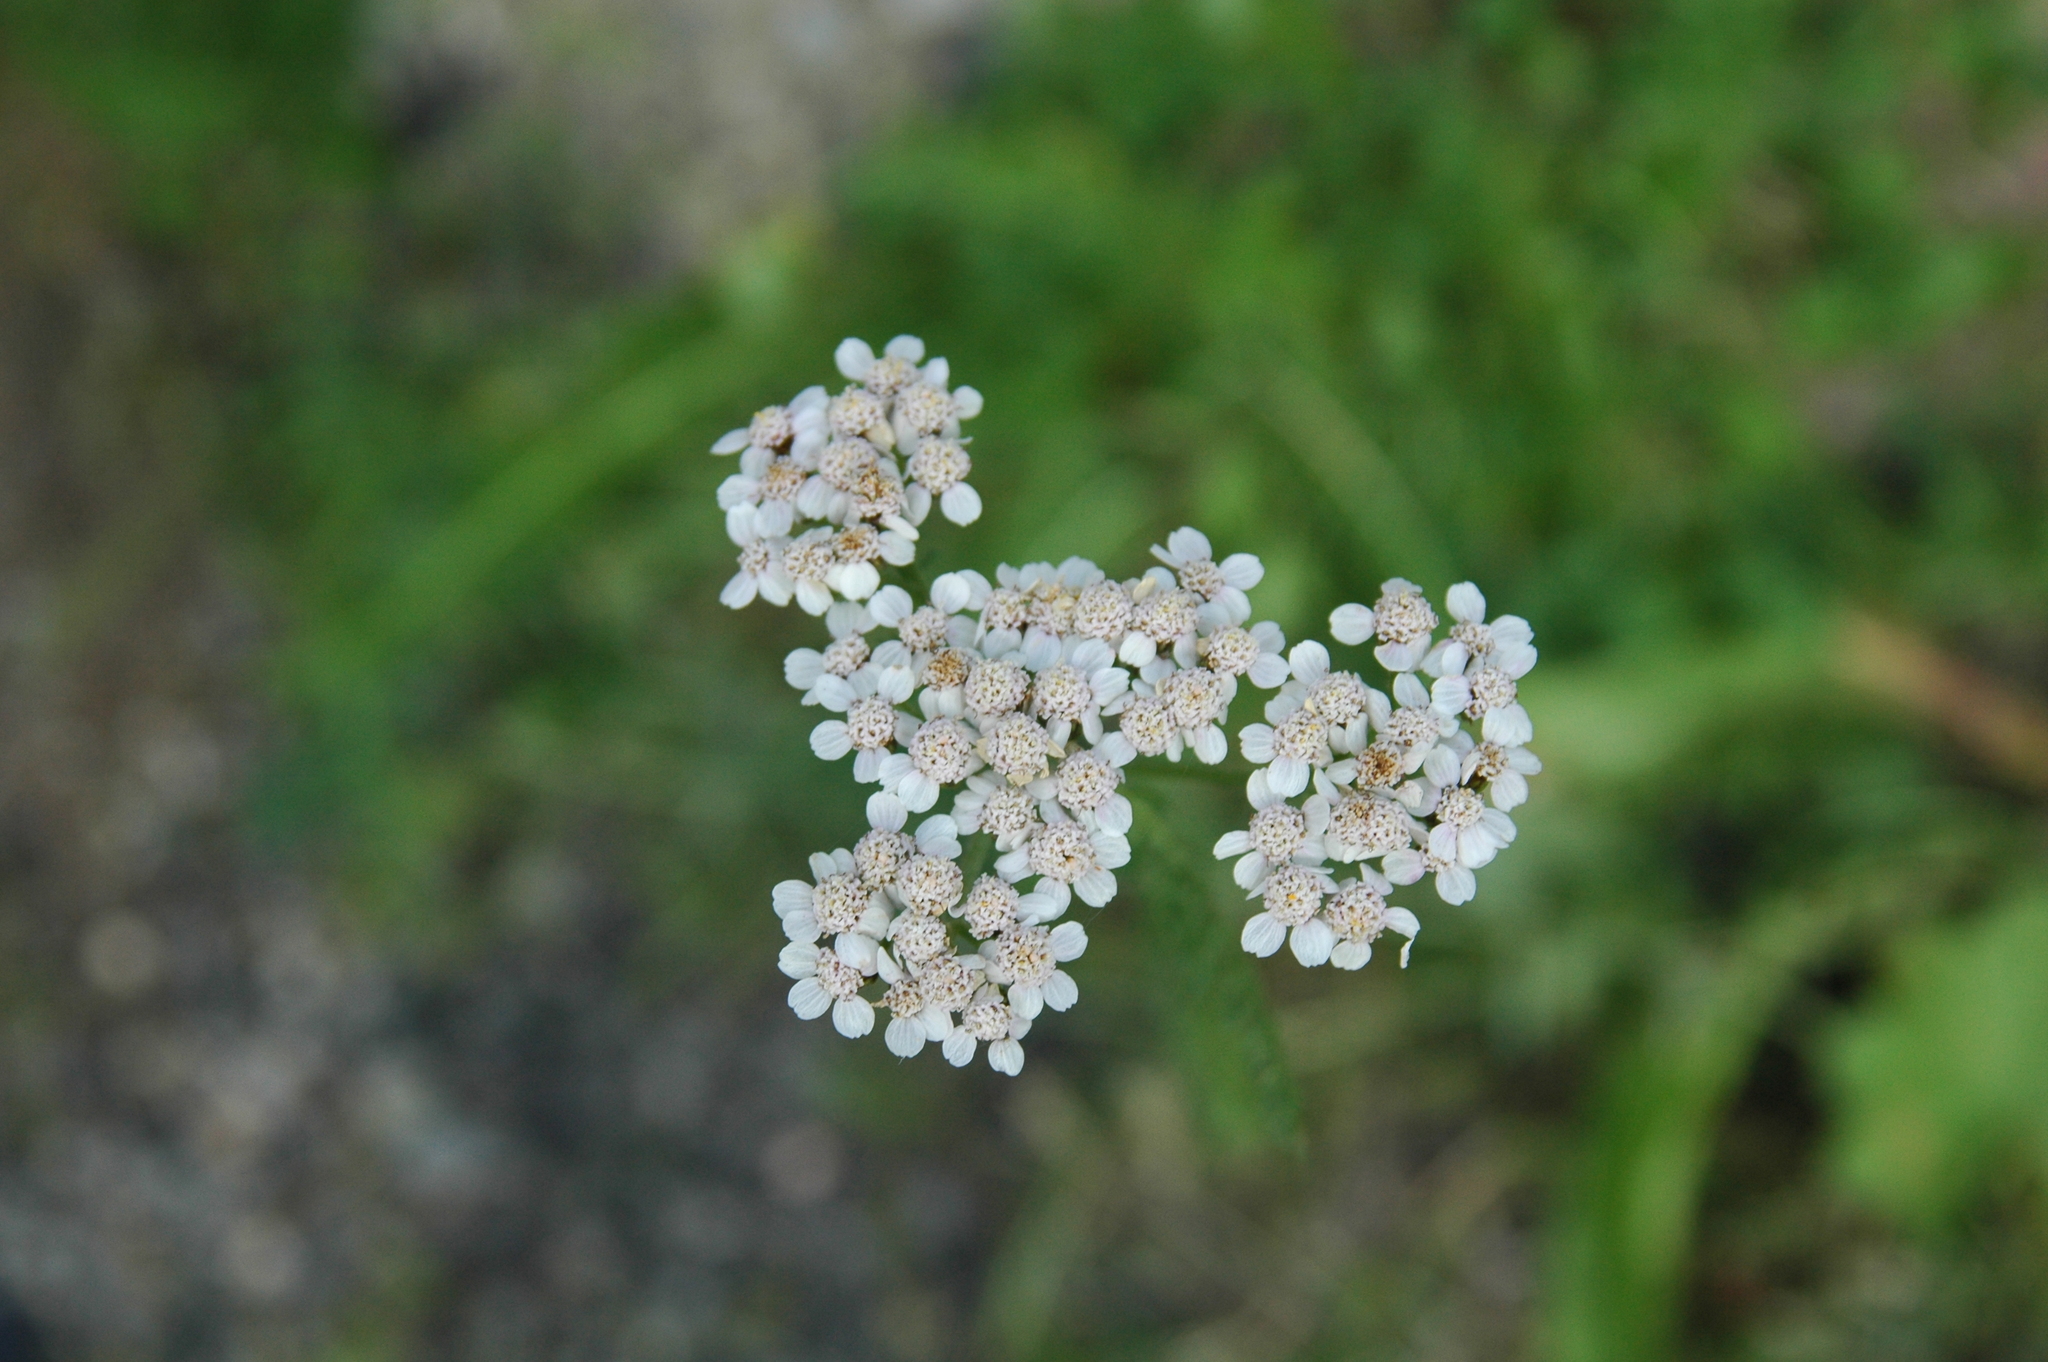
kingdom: Plantae
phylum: Tracheophyta
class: Magnoliopsida
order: Asterales
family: Asteraceae
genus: Achillea
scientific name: Achillea millefolium
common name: Yarrow
